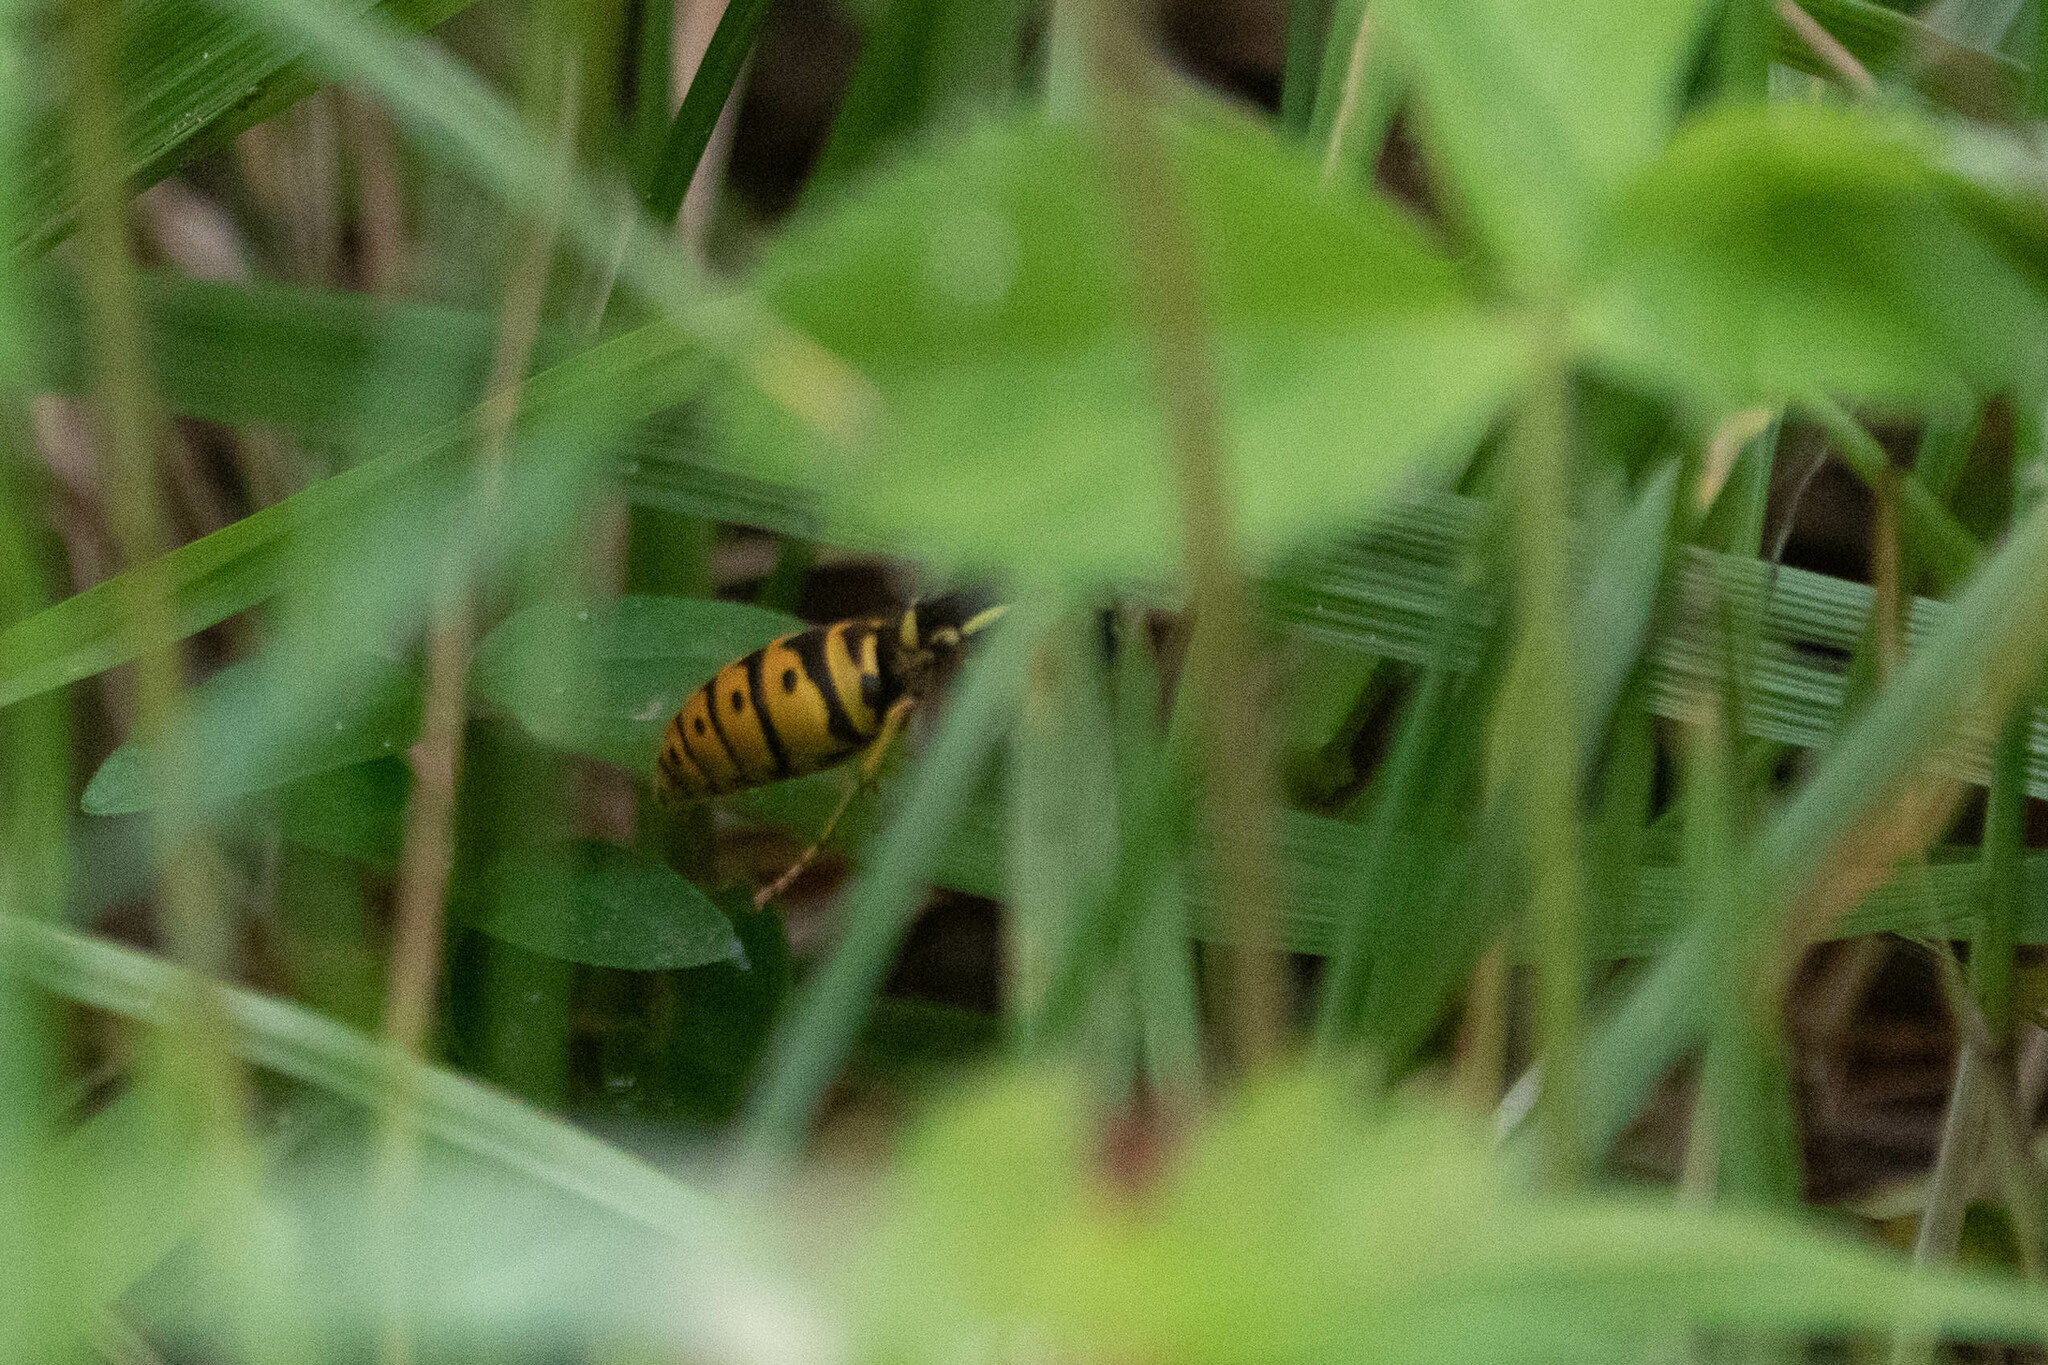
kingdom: Animalia
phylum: Arthropoda
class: Insecta
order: Hymenoptera
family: Vespidae
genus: Vespula
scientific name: Vespula maculifrons
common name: Eastern yellowjacket
